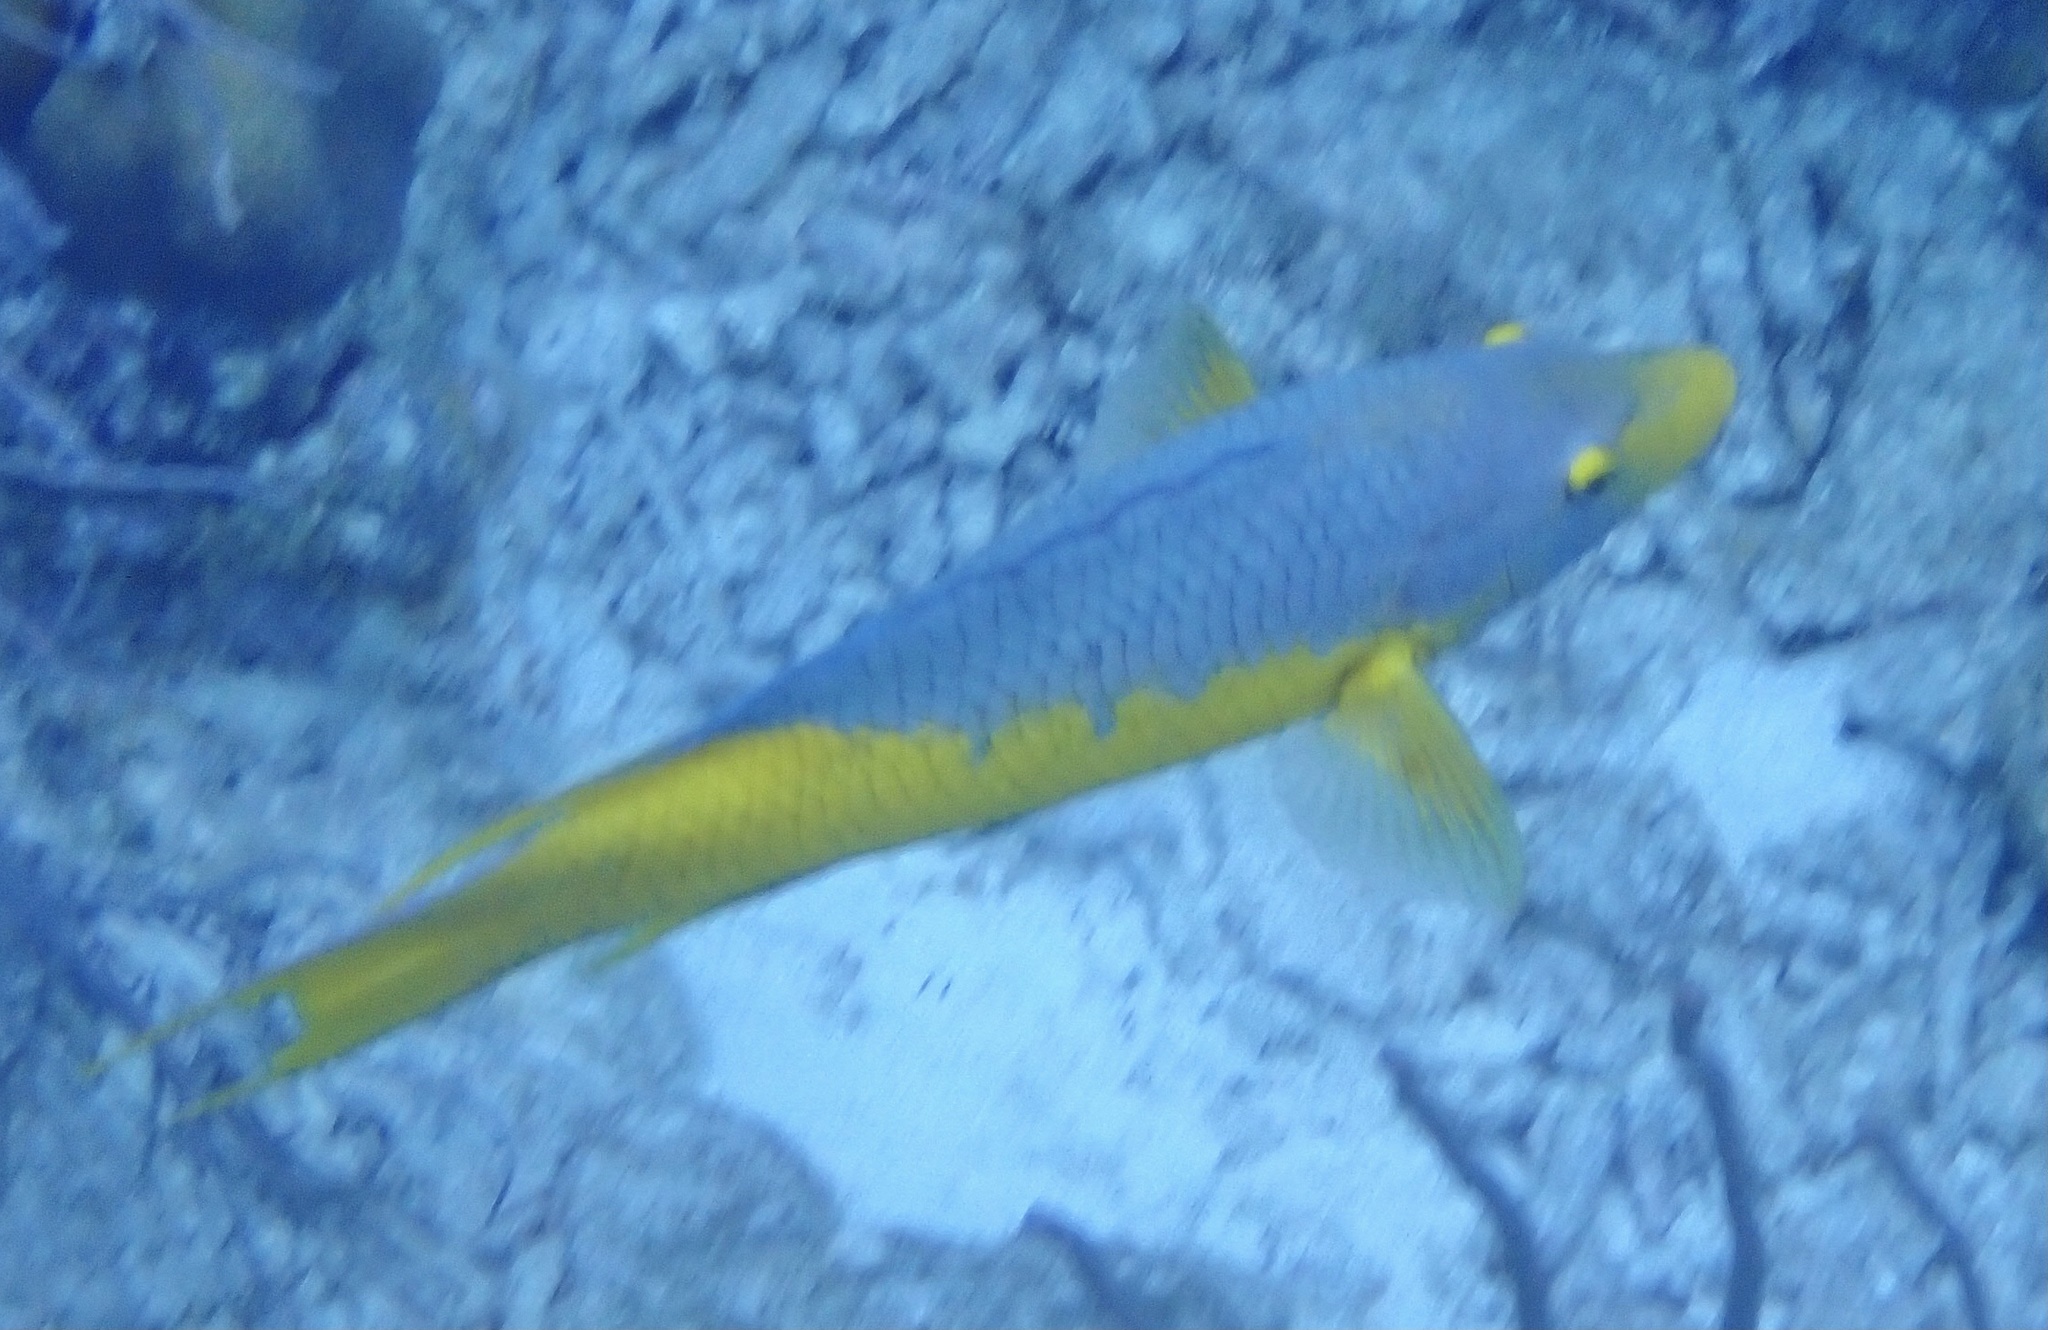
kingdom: Animalia
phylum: Chordata
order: Perciformes
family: Labridae
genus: Bodianus
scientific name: Bodianus rufus
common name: Spanish hogfish
